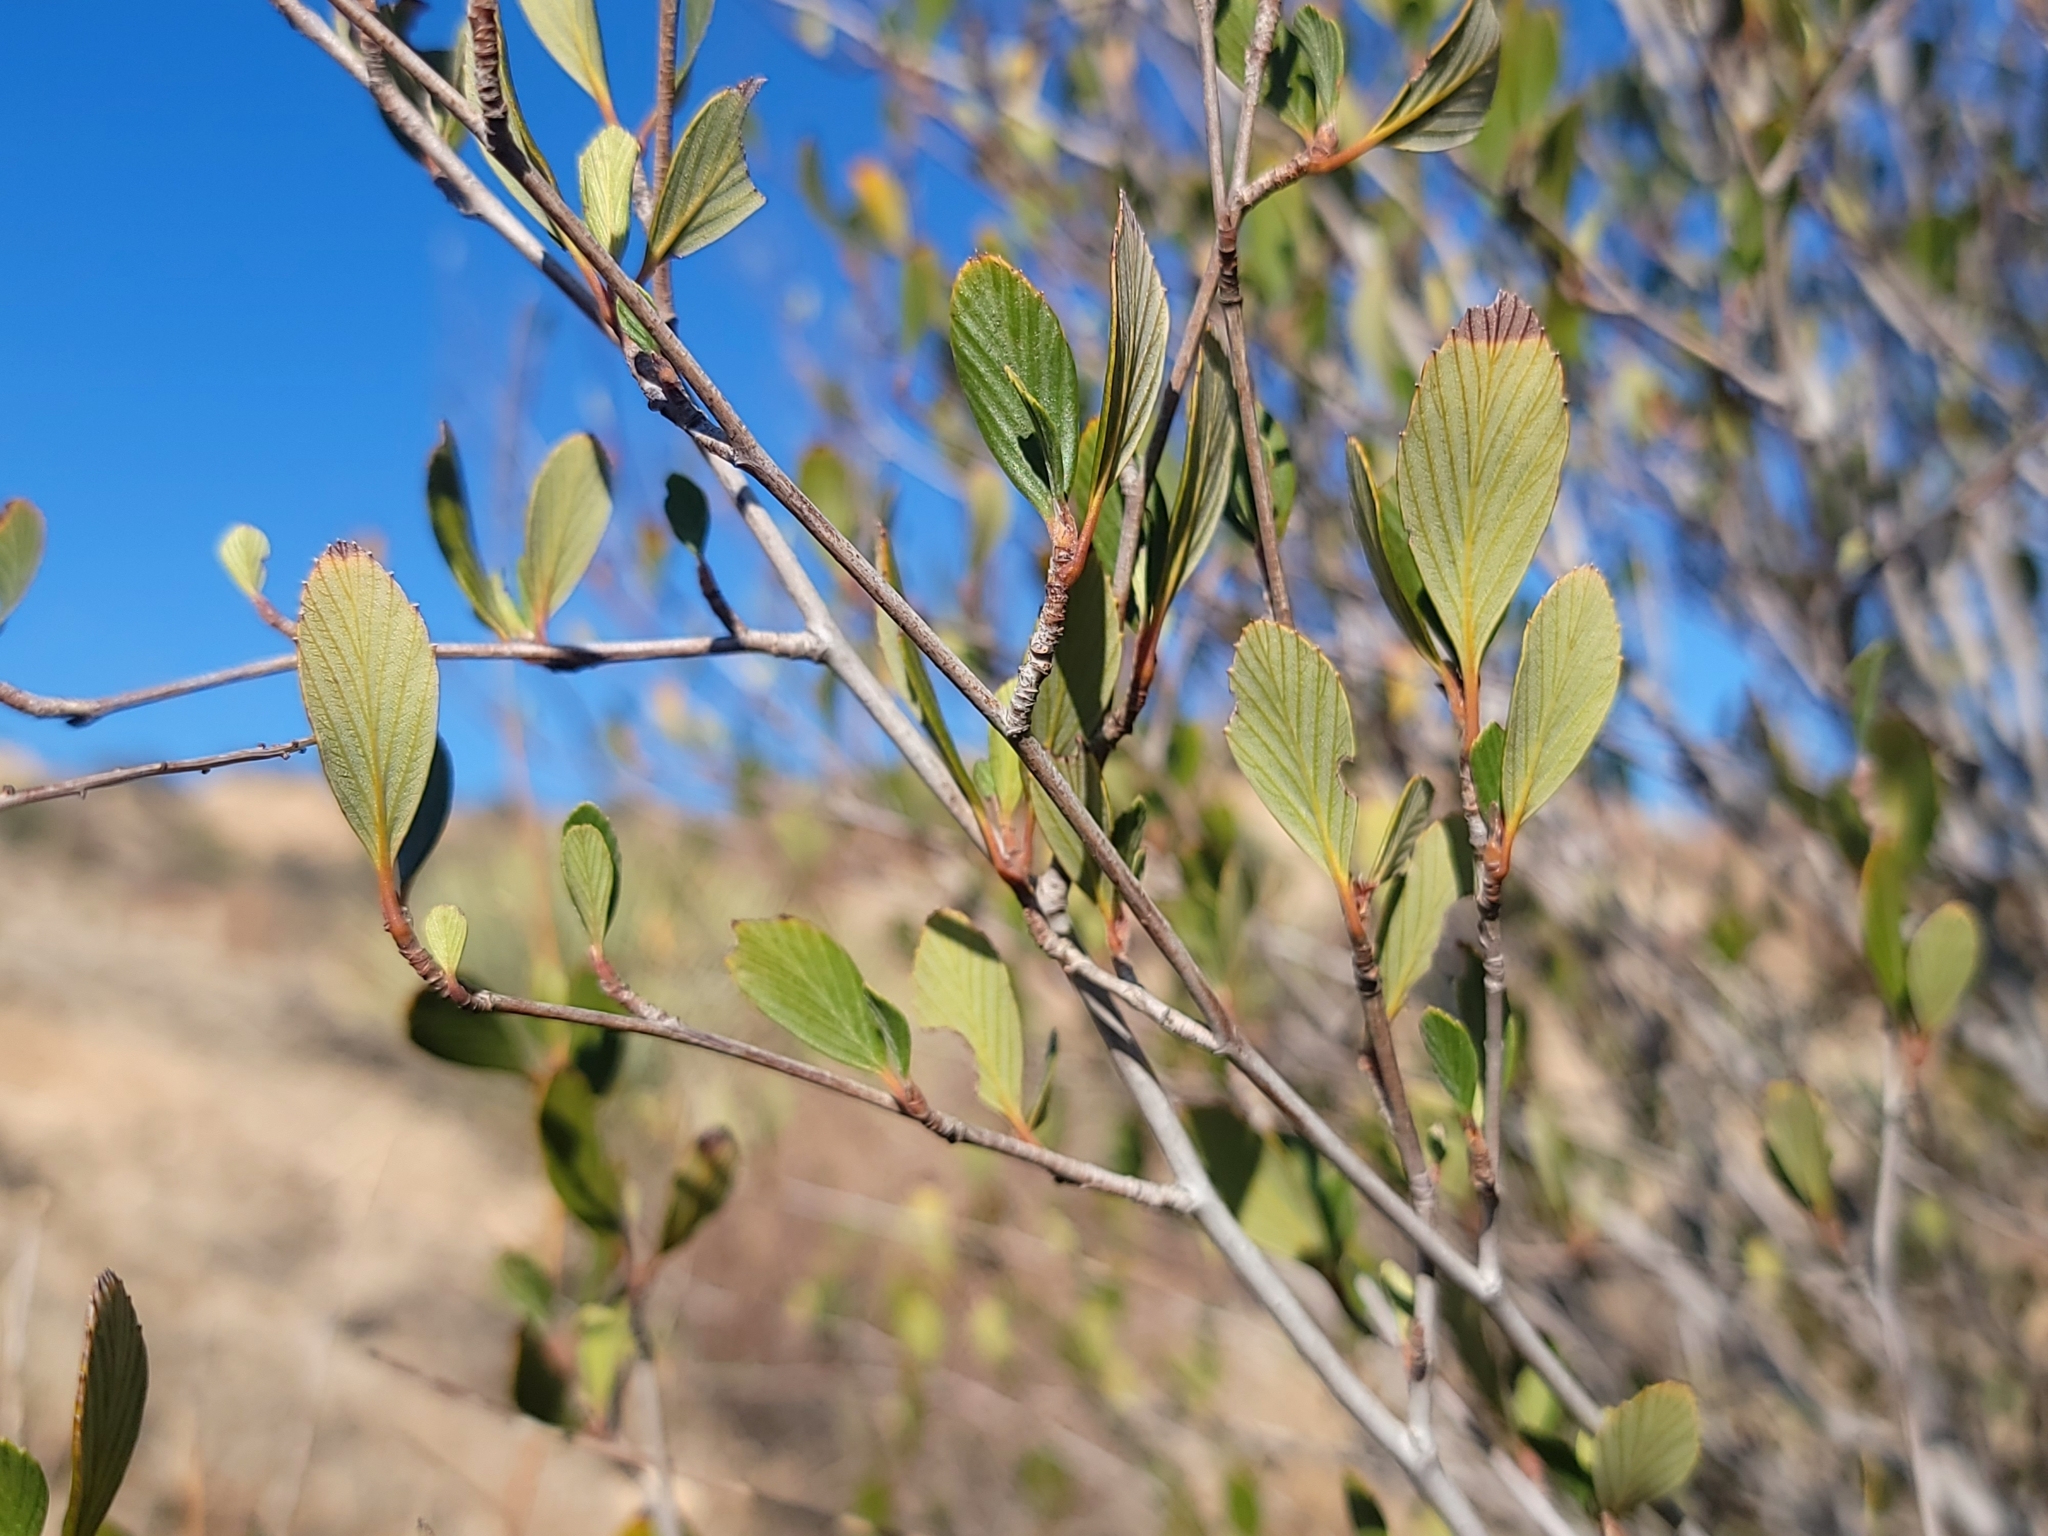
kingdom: Plantae
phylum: Tracheophyta
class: Magnoliopsida
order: Rosales
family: Rosaceae
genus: Cercocarpus
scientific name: Cercocarpus betuloides
